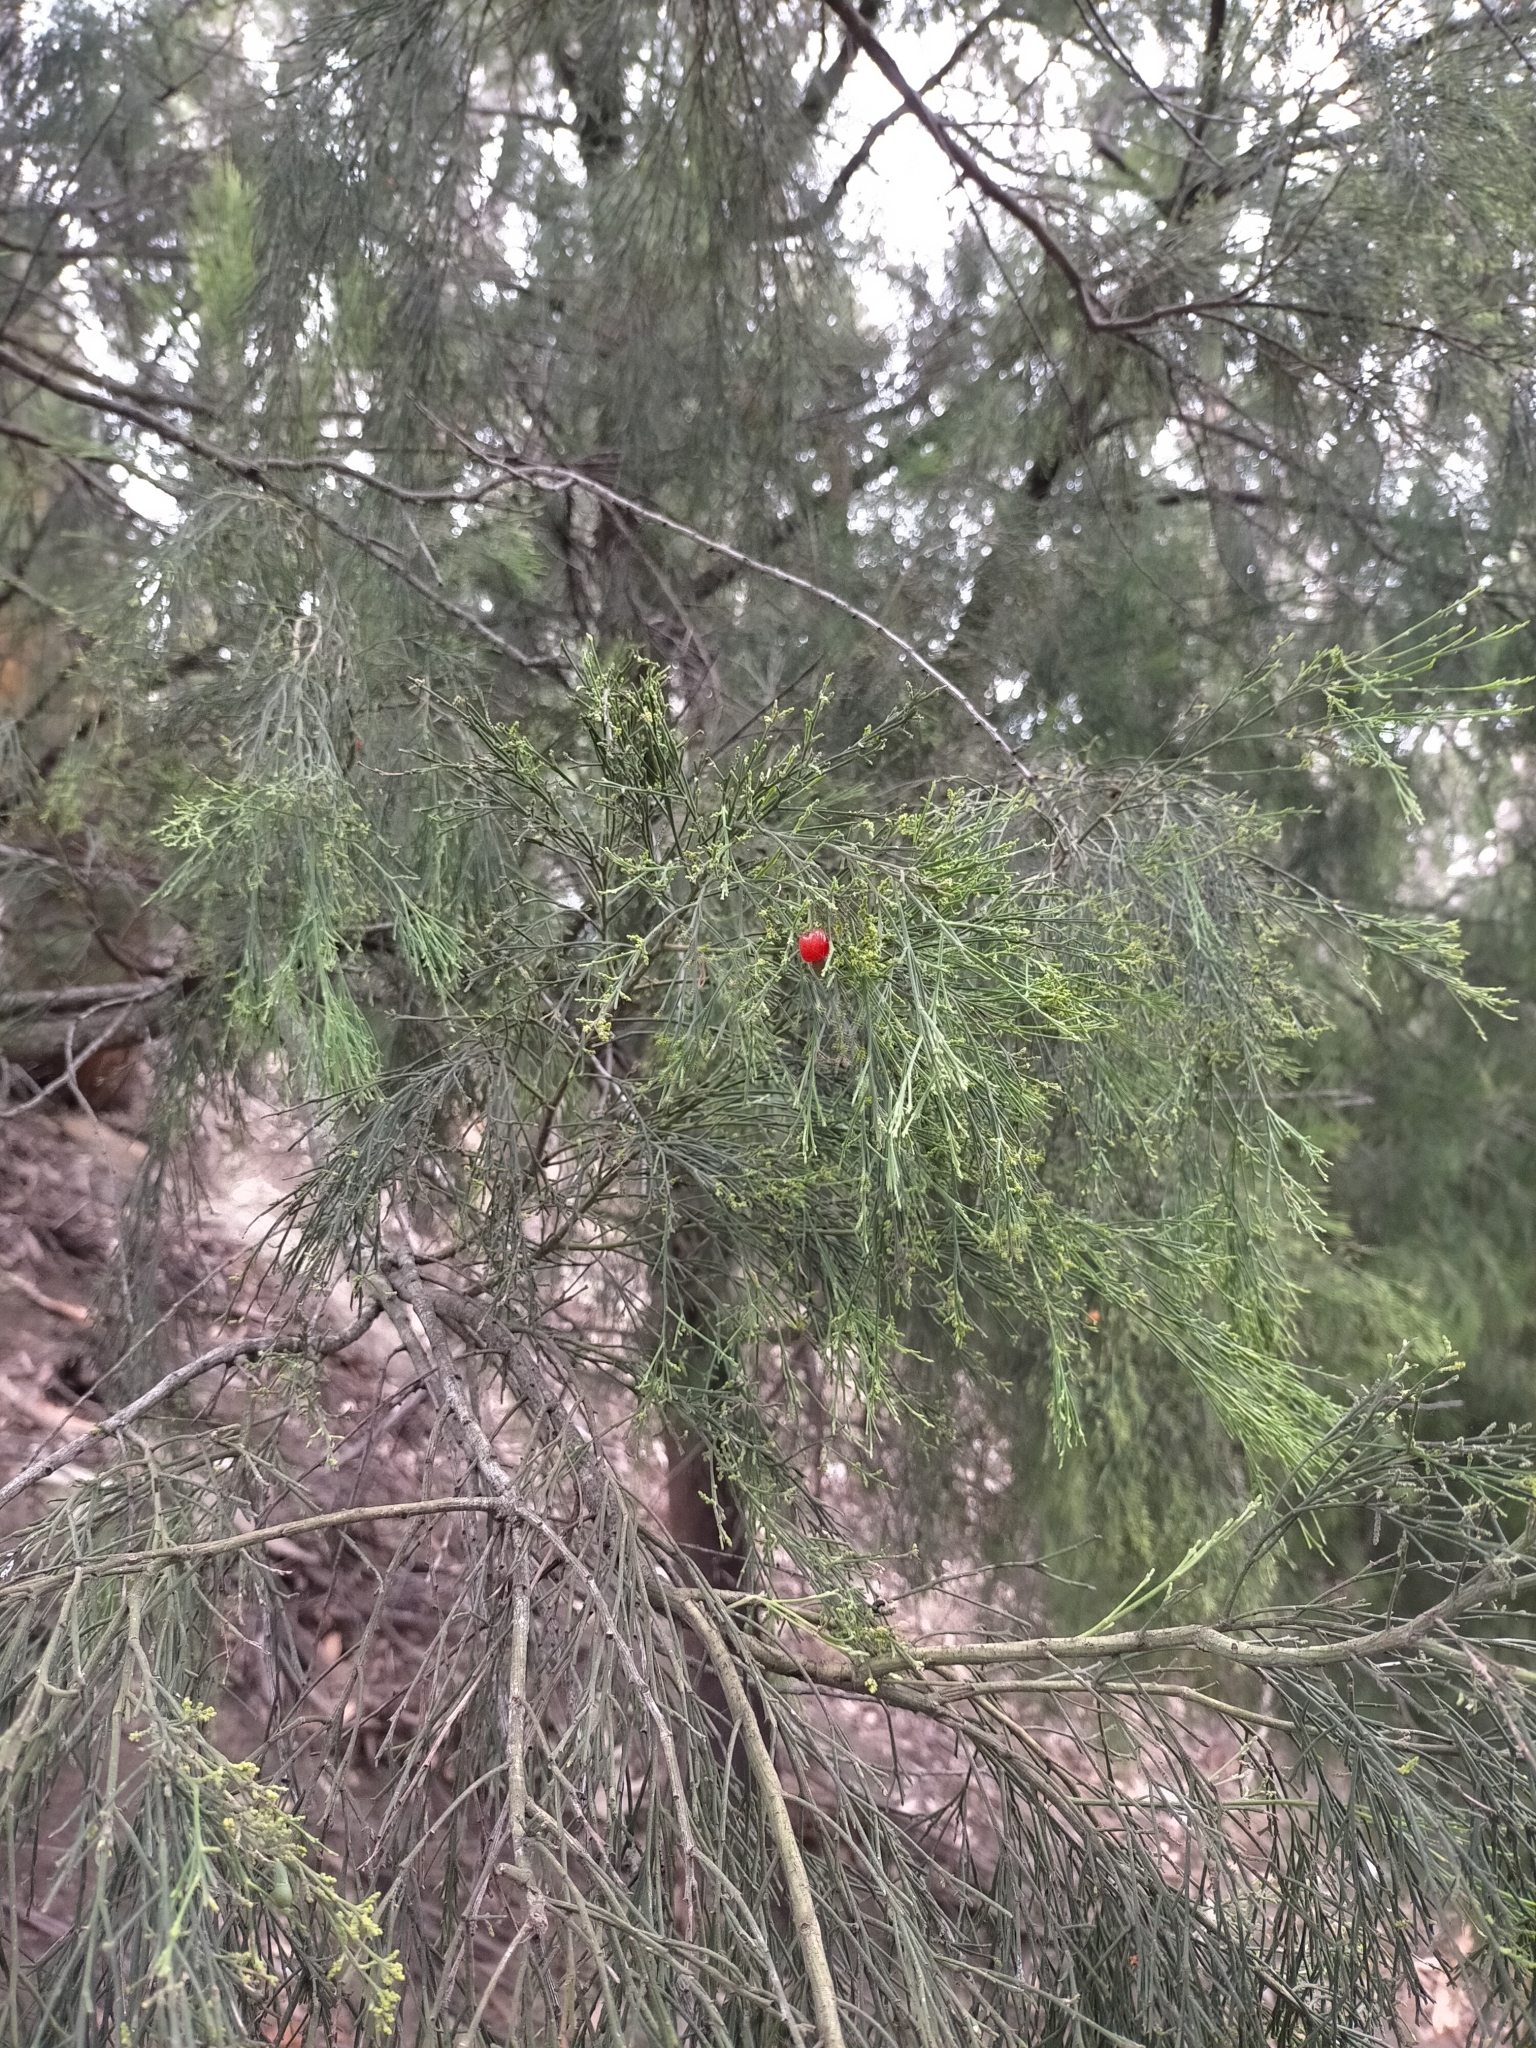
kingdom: Plantae
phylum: Tracheophyta
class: Magnoliopsida
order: Santalales
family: Santalaceae
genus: Exocarpos
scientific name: Exocarpos cupressiformis
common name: Cherry ballart
